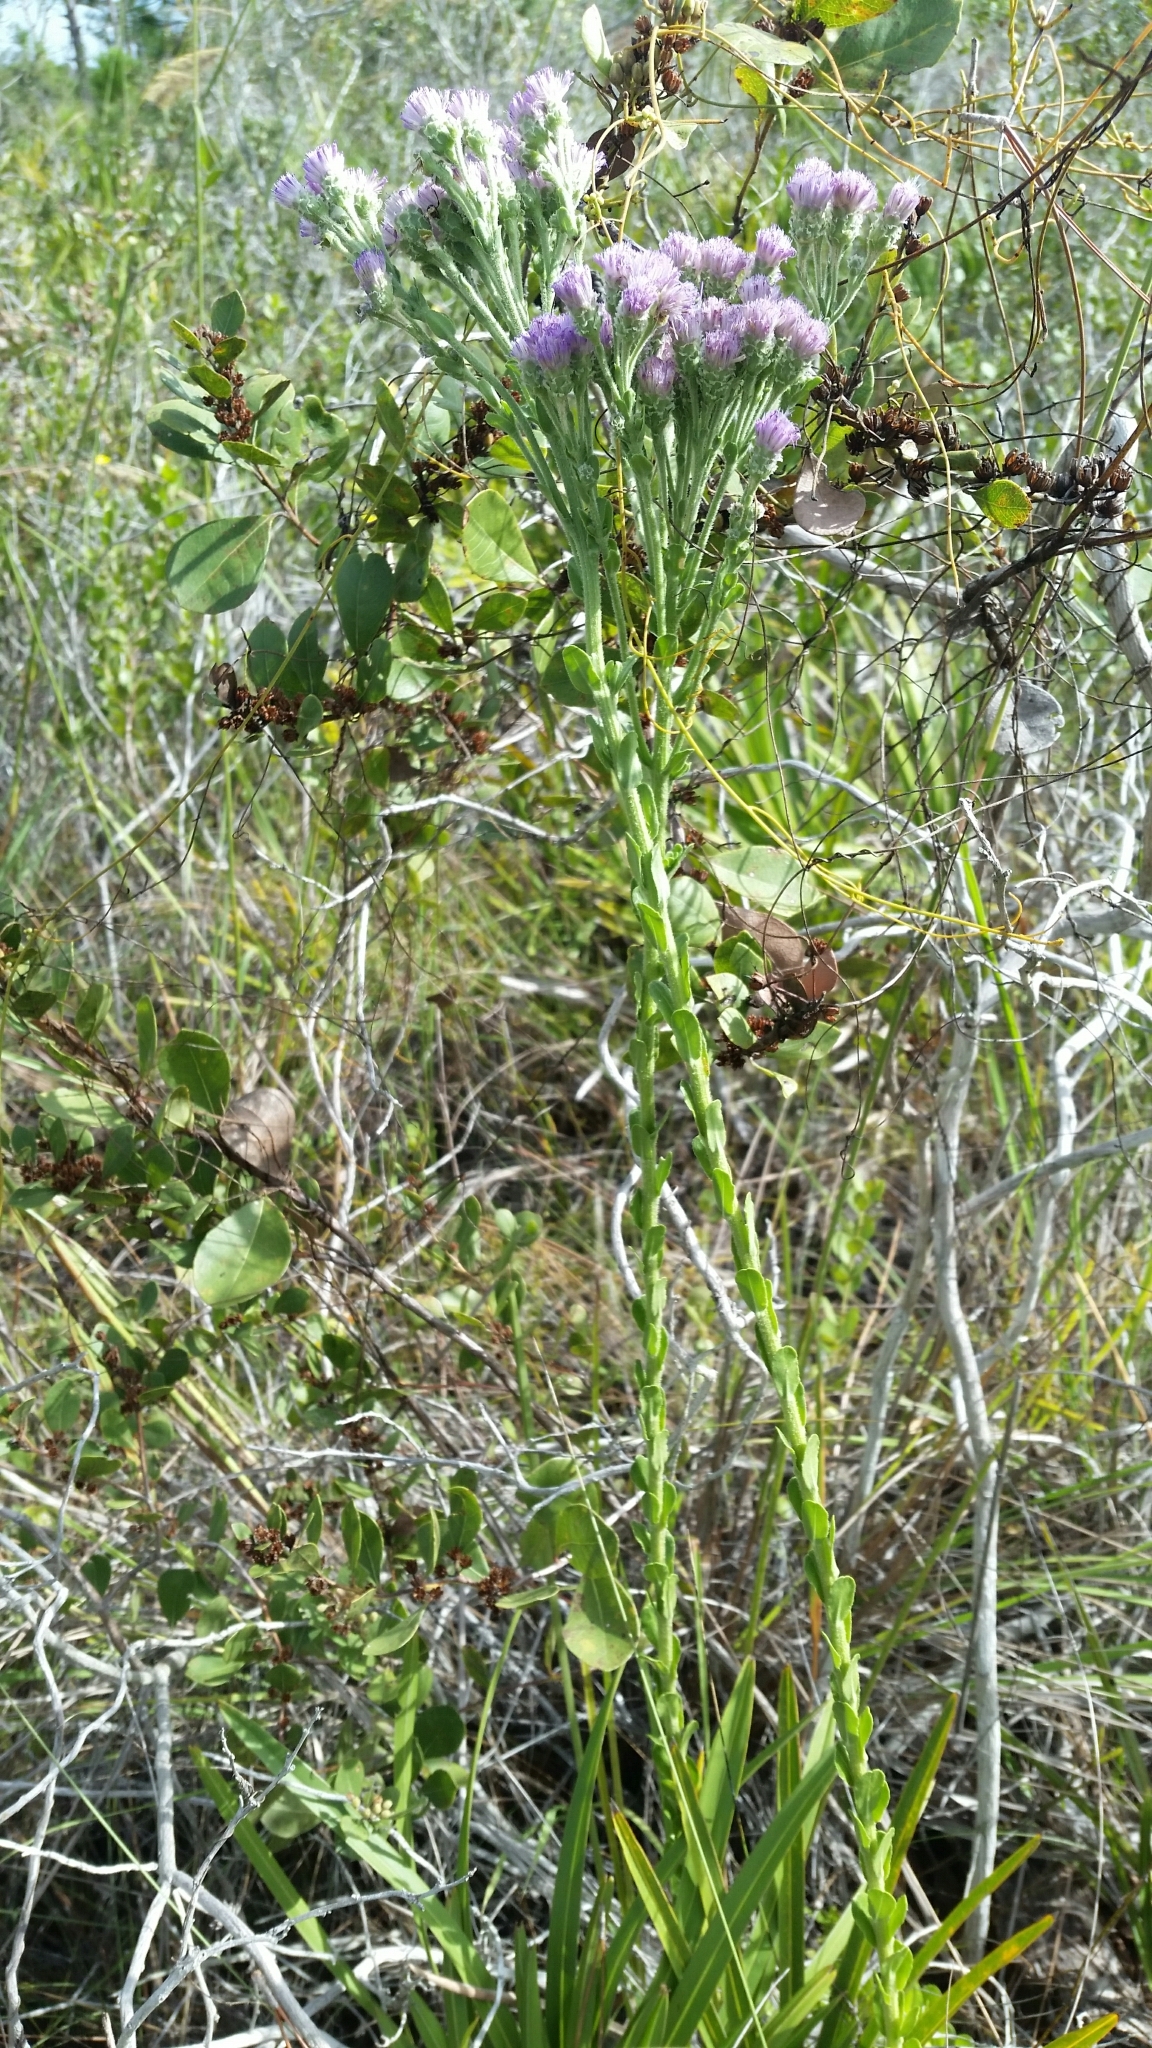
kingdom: Plantae
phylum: Tracheophyta
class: Magnoliopsida
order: Asterales
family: Asteraceae
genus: Carphephorus
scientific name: Carphephorus corymbosus
